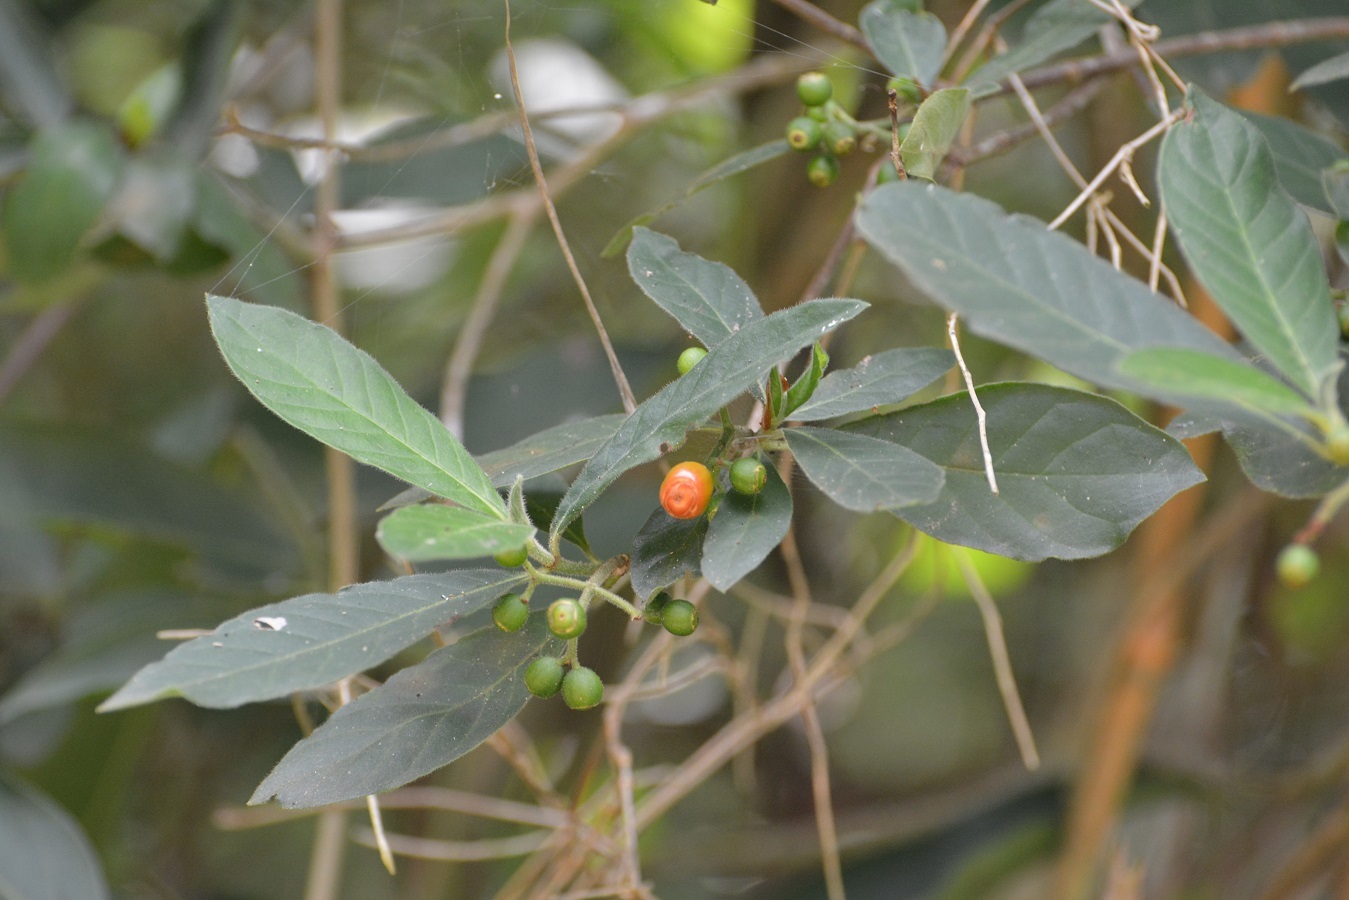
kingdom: Plantae
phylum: Tracheophyta
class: Magnoliopsida
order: Gentianales
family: Rubiaceae
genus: Psychotria
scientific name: Psychotria erythrocarpa
